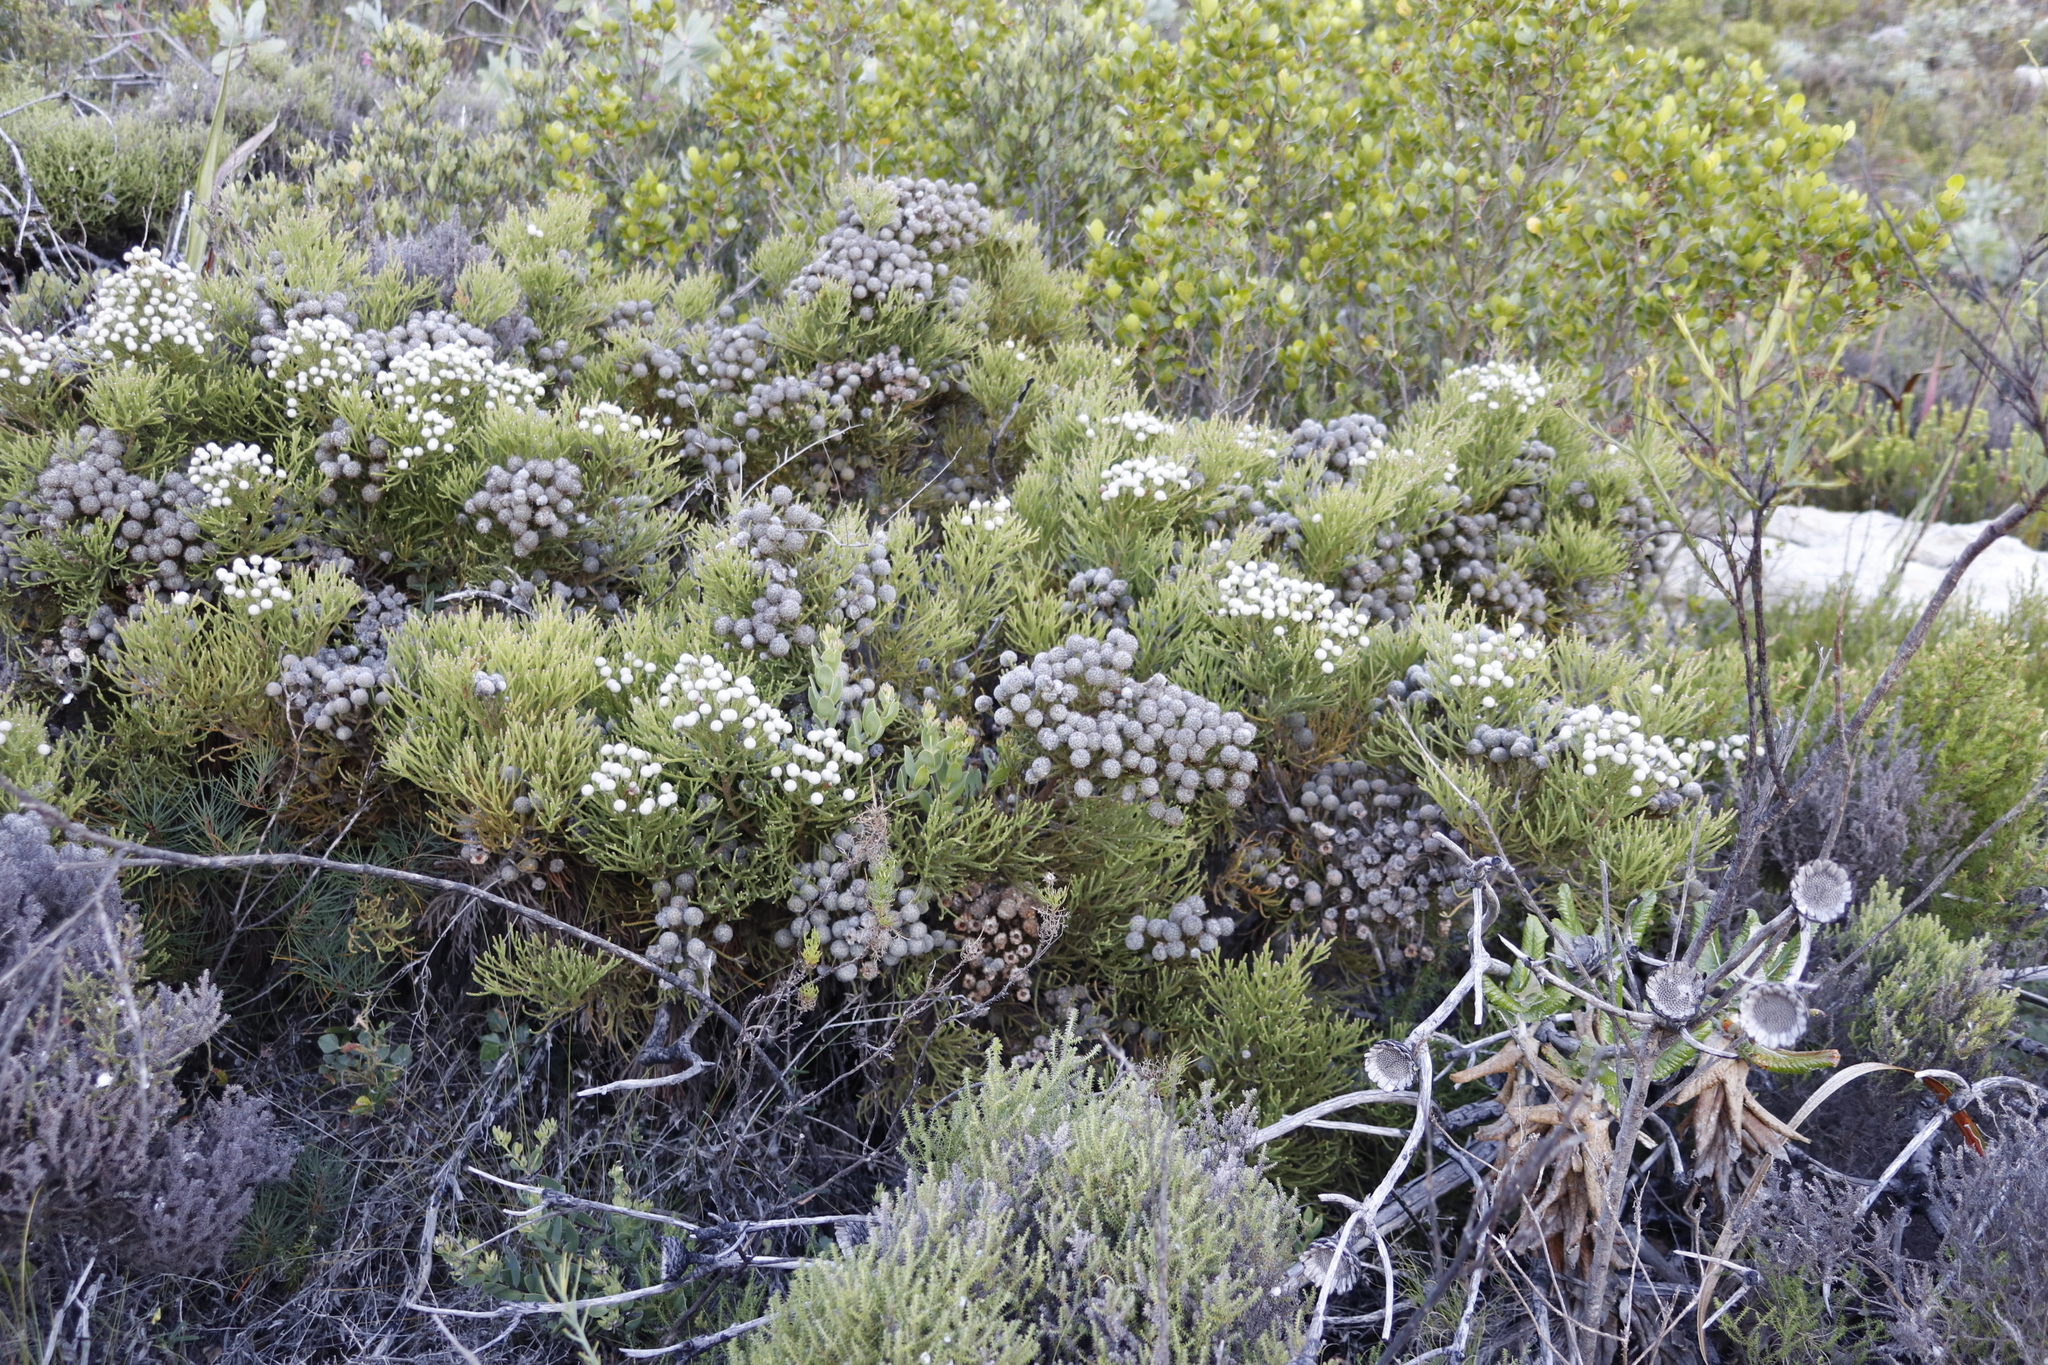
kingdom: Plantae
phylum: Tracheophyta
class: Magnoliopsida
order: Bruniales
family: Bruniaceae
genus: Brunia
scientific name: Brunia noduliflora
